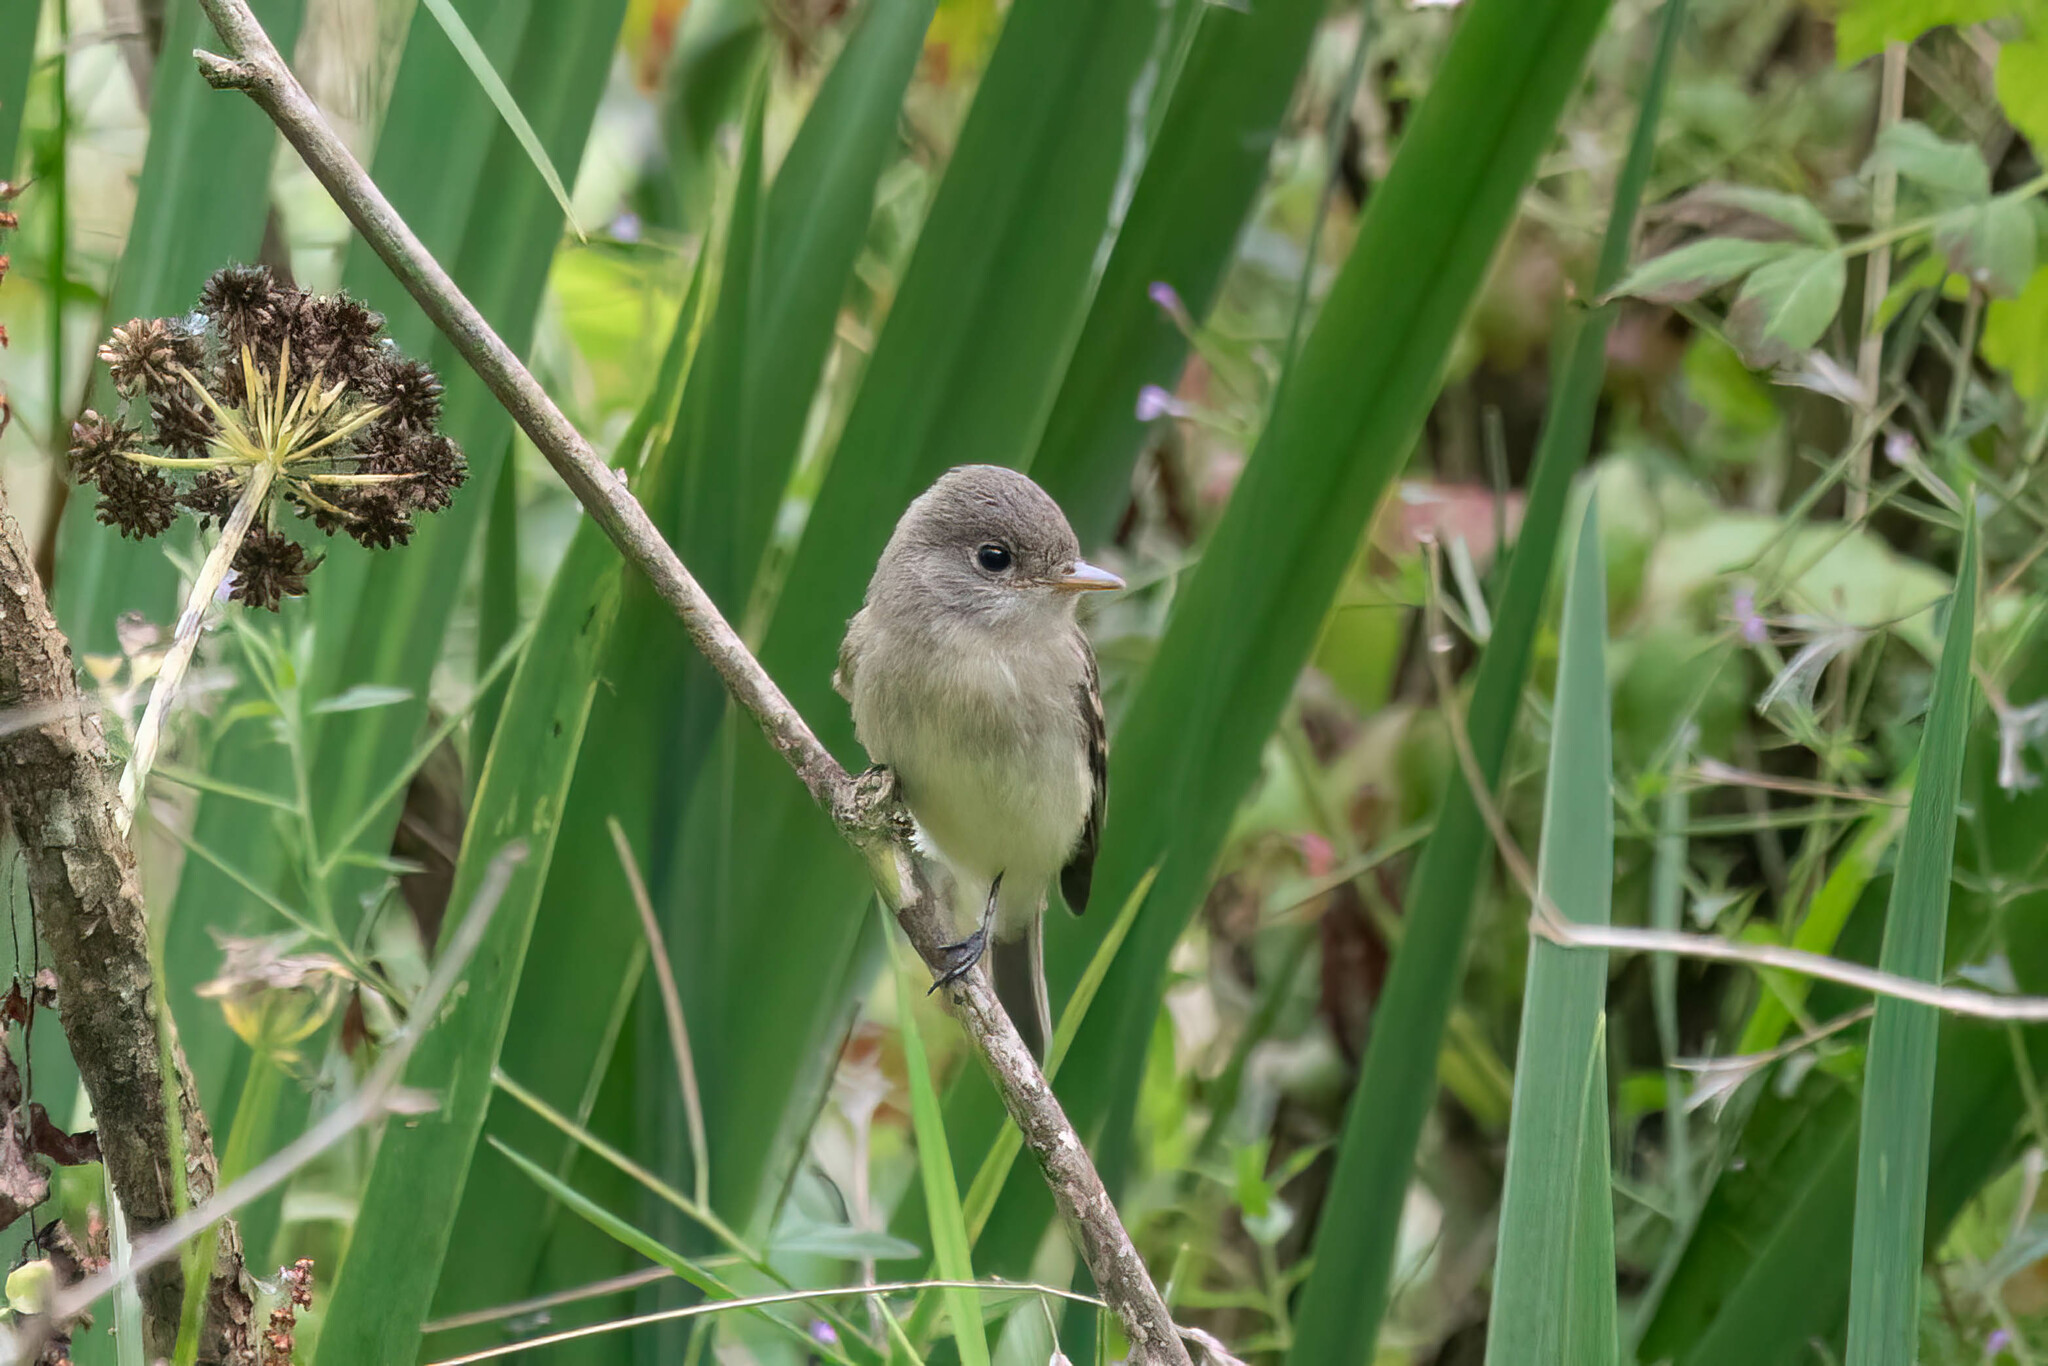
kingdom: Animalia
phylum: Chordata
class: Aves
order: Passeriformes
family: Tyrannidae
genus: Empidonax
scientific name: Empidonax traillii
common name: Willow flycatcher
